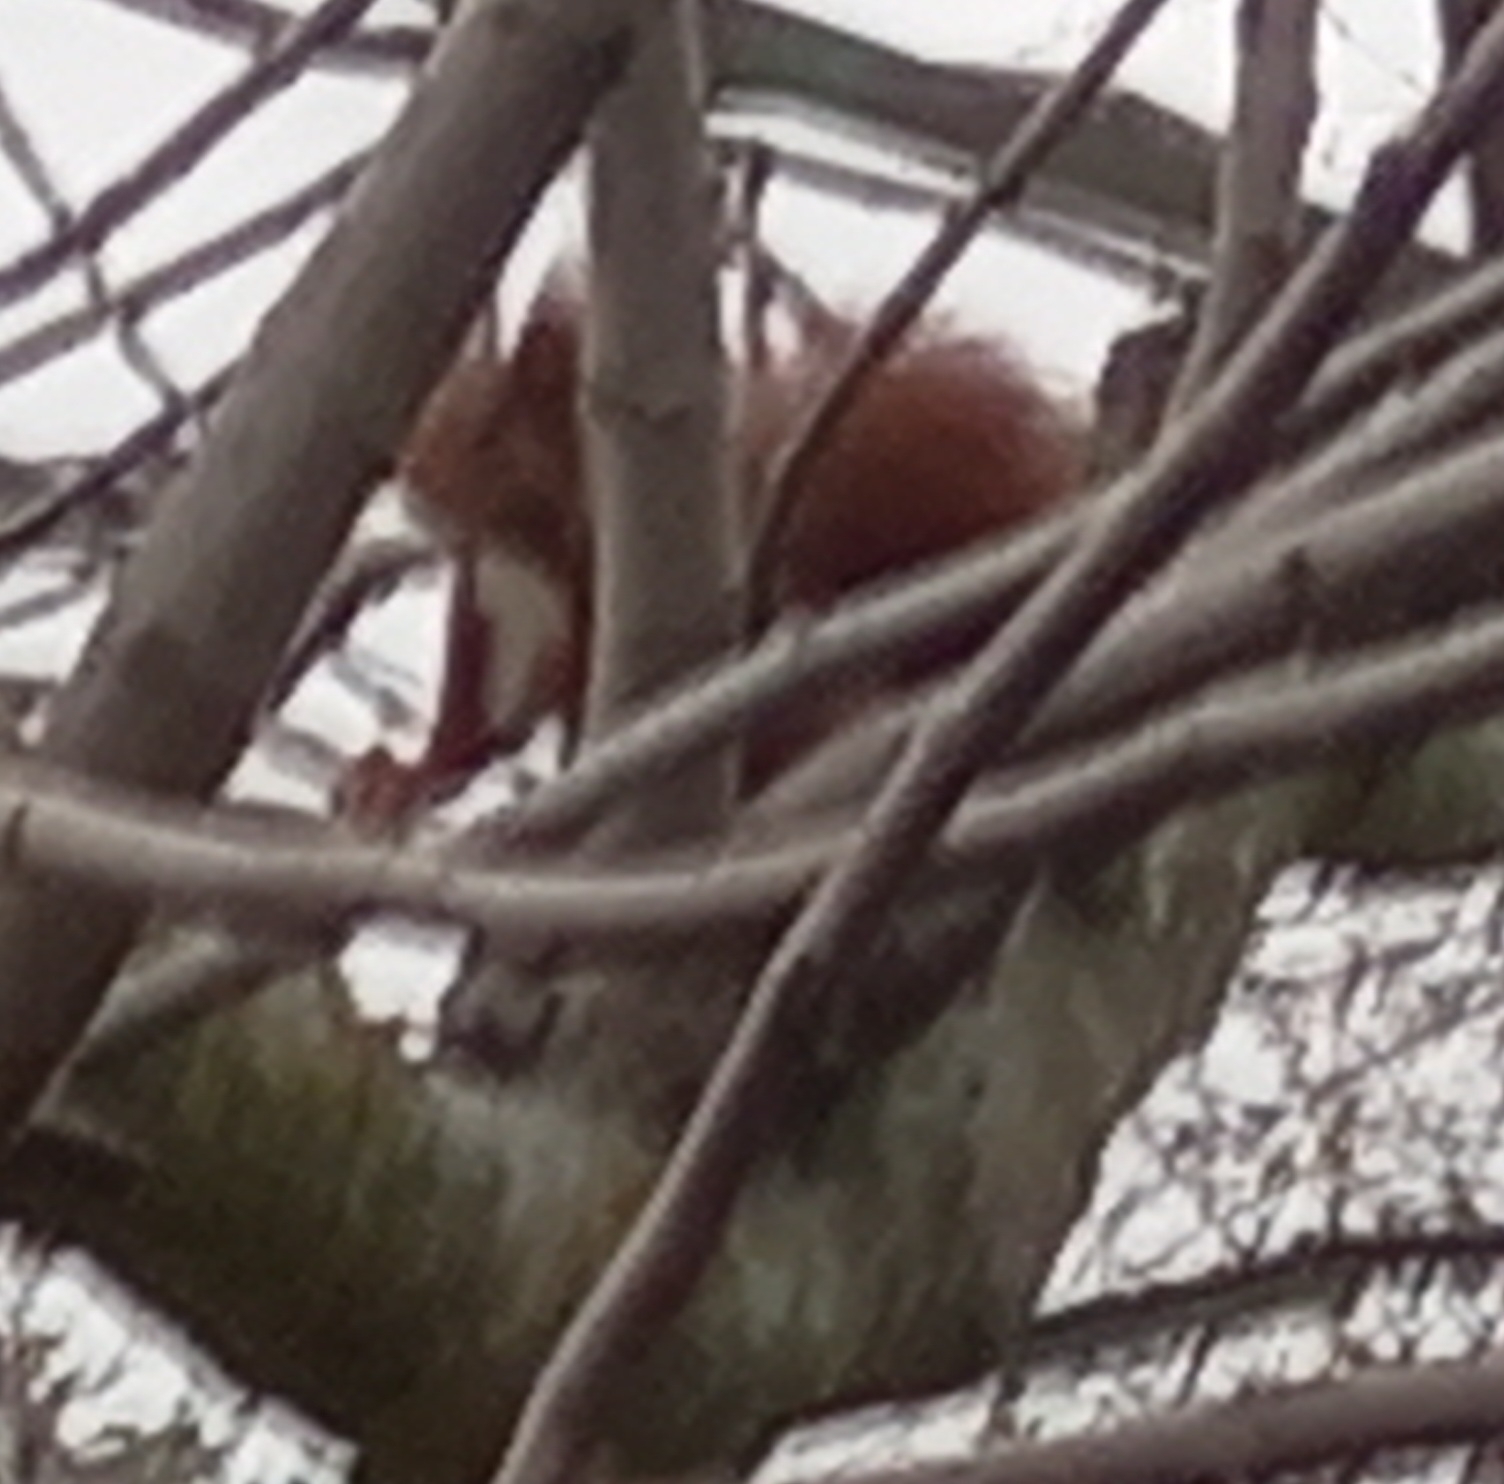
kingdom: Animalia
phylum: Chordata
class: Mammalia
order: Rodentia
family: Sciuridae
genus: Sciurus
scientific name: Sciurus vulgaris
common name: Eurasian red squirrel
